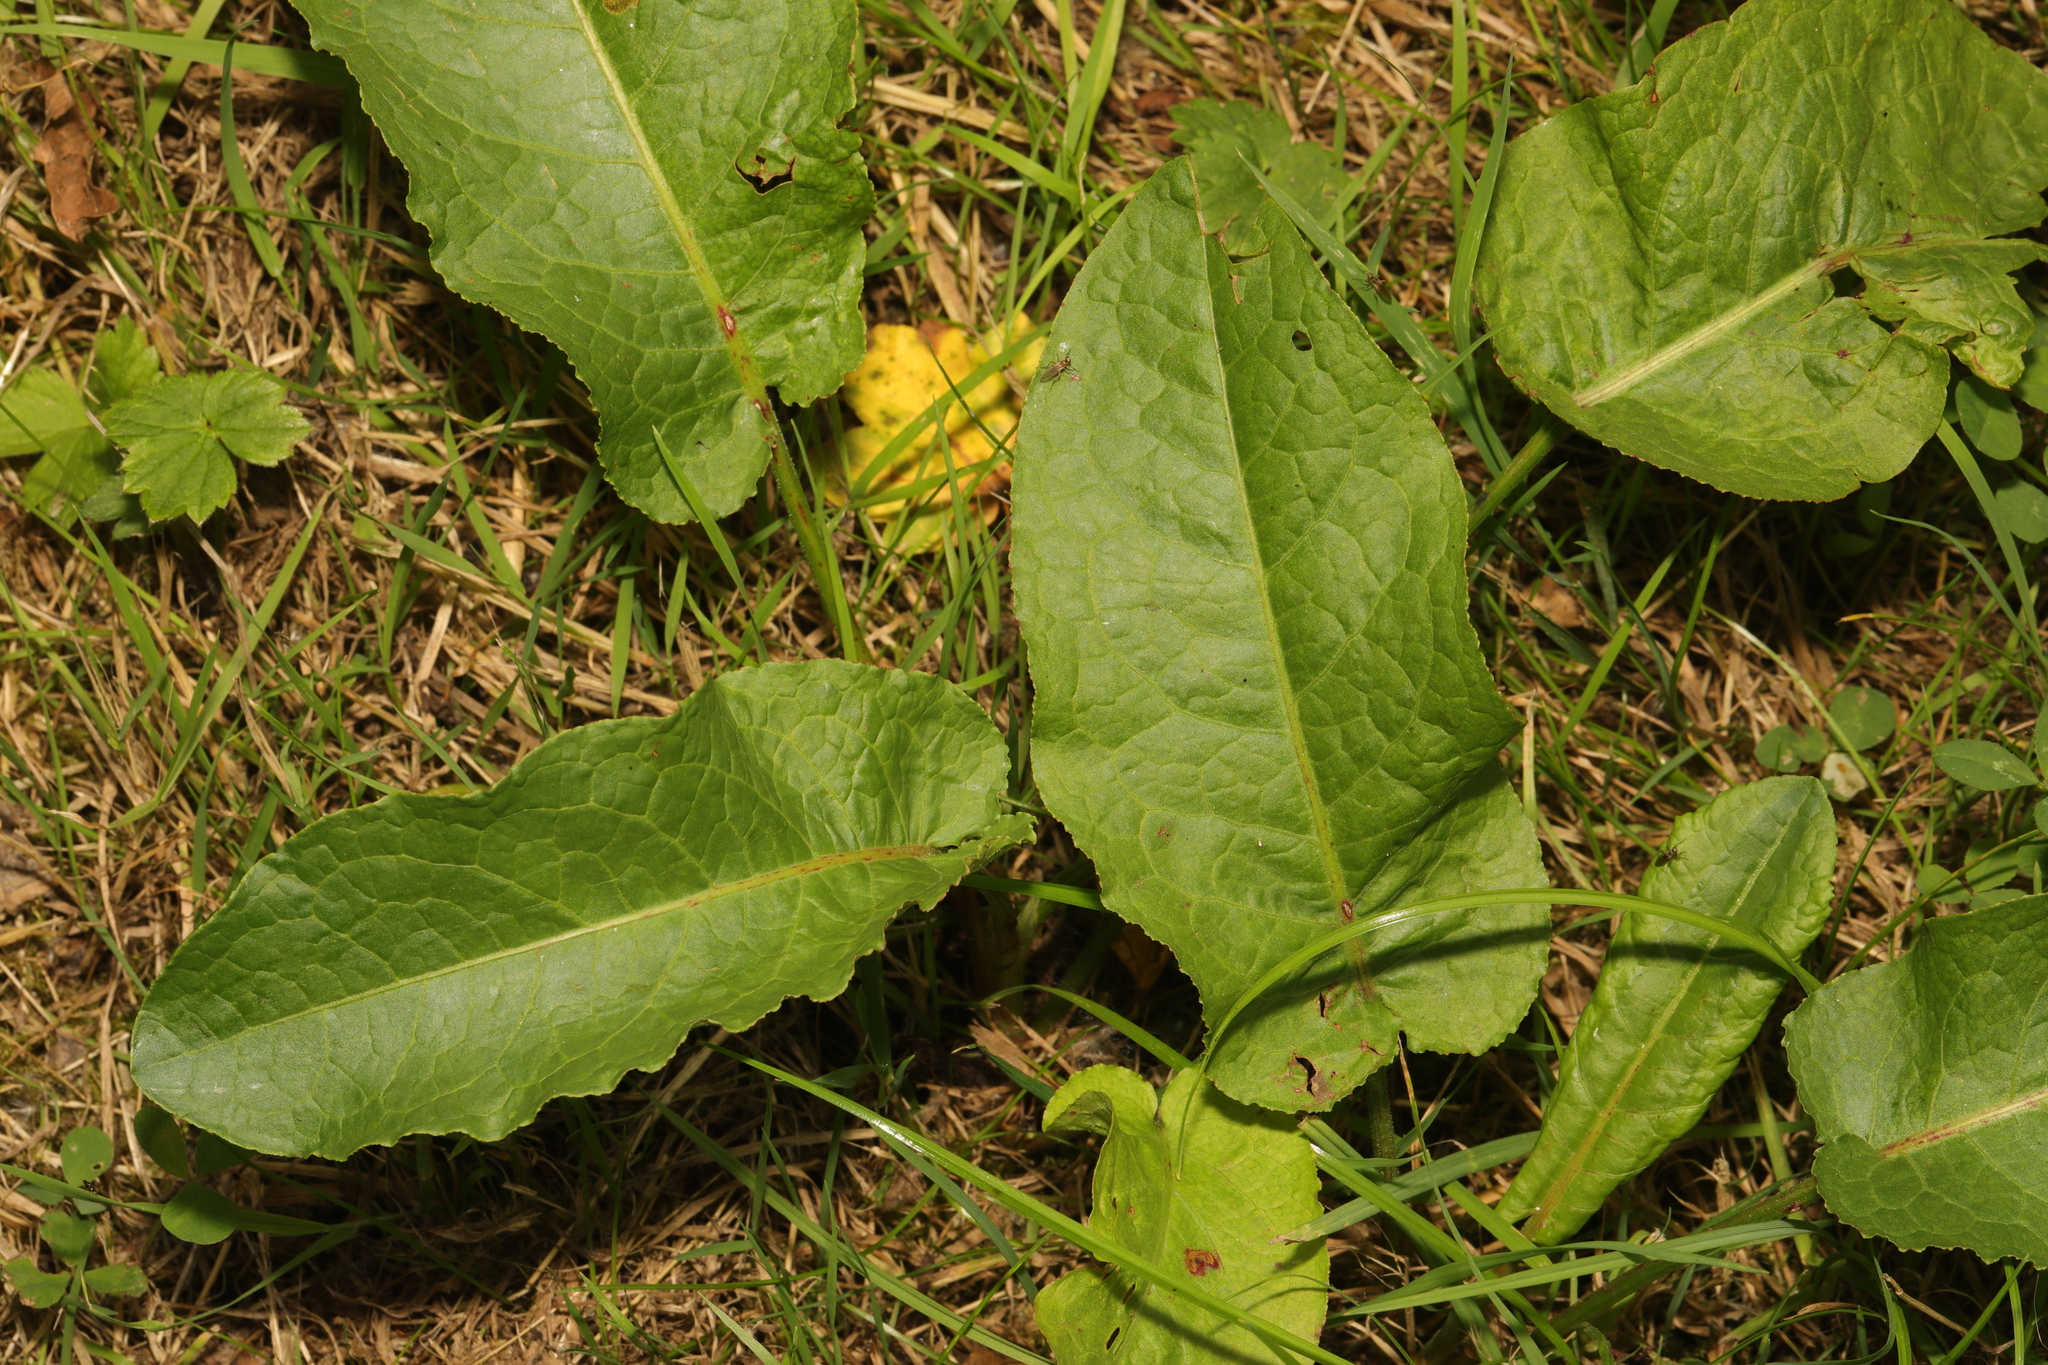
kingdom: Plantae
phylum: Tracheophyta
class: Magnoliopsida
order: Caryophyllales
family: Polygonaceae
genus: Rumex
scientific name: Rumex obtusifolius
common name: Bitter dock
